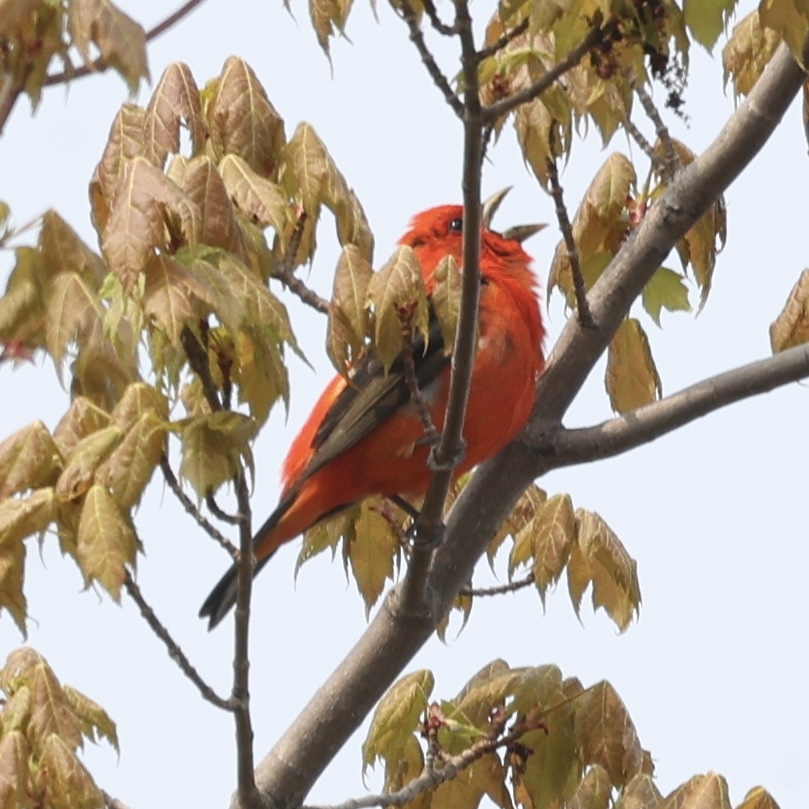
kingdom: Animalia
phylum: Chordata
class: Aves
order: Passeriformes
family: Cardinalidae
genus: Piranga
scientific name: Piranga olivacea
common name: Scarlet tanager
